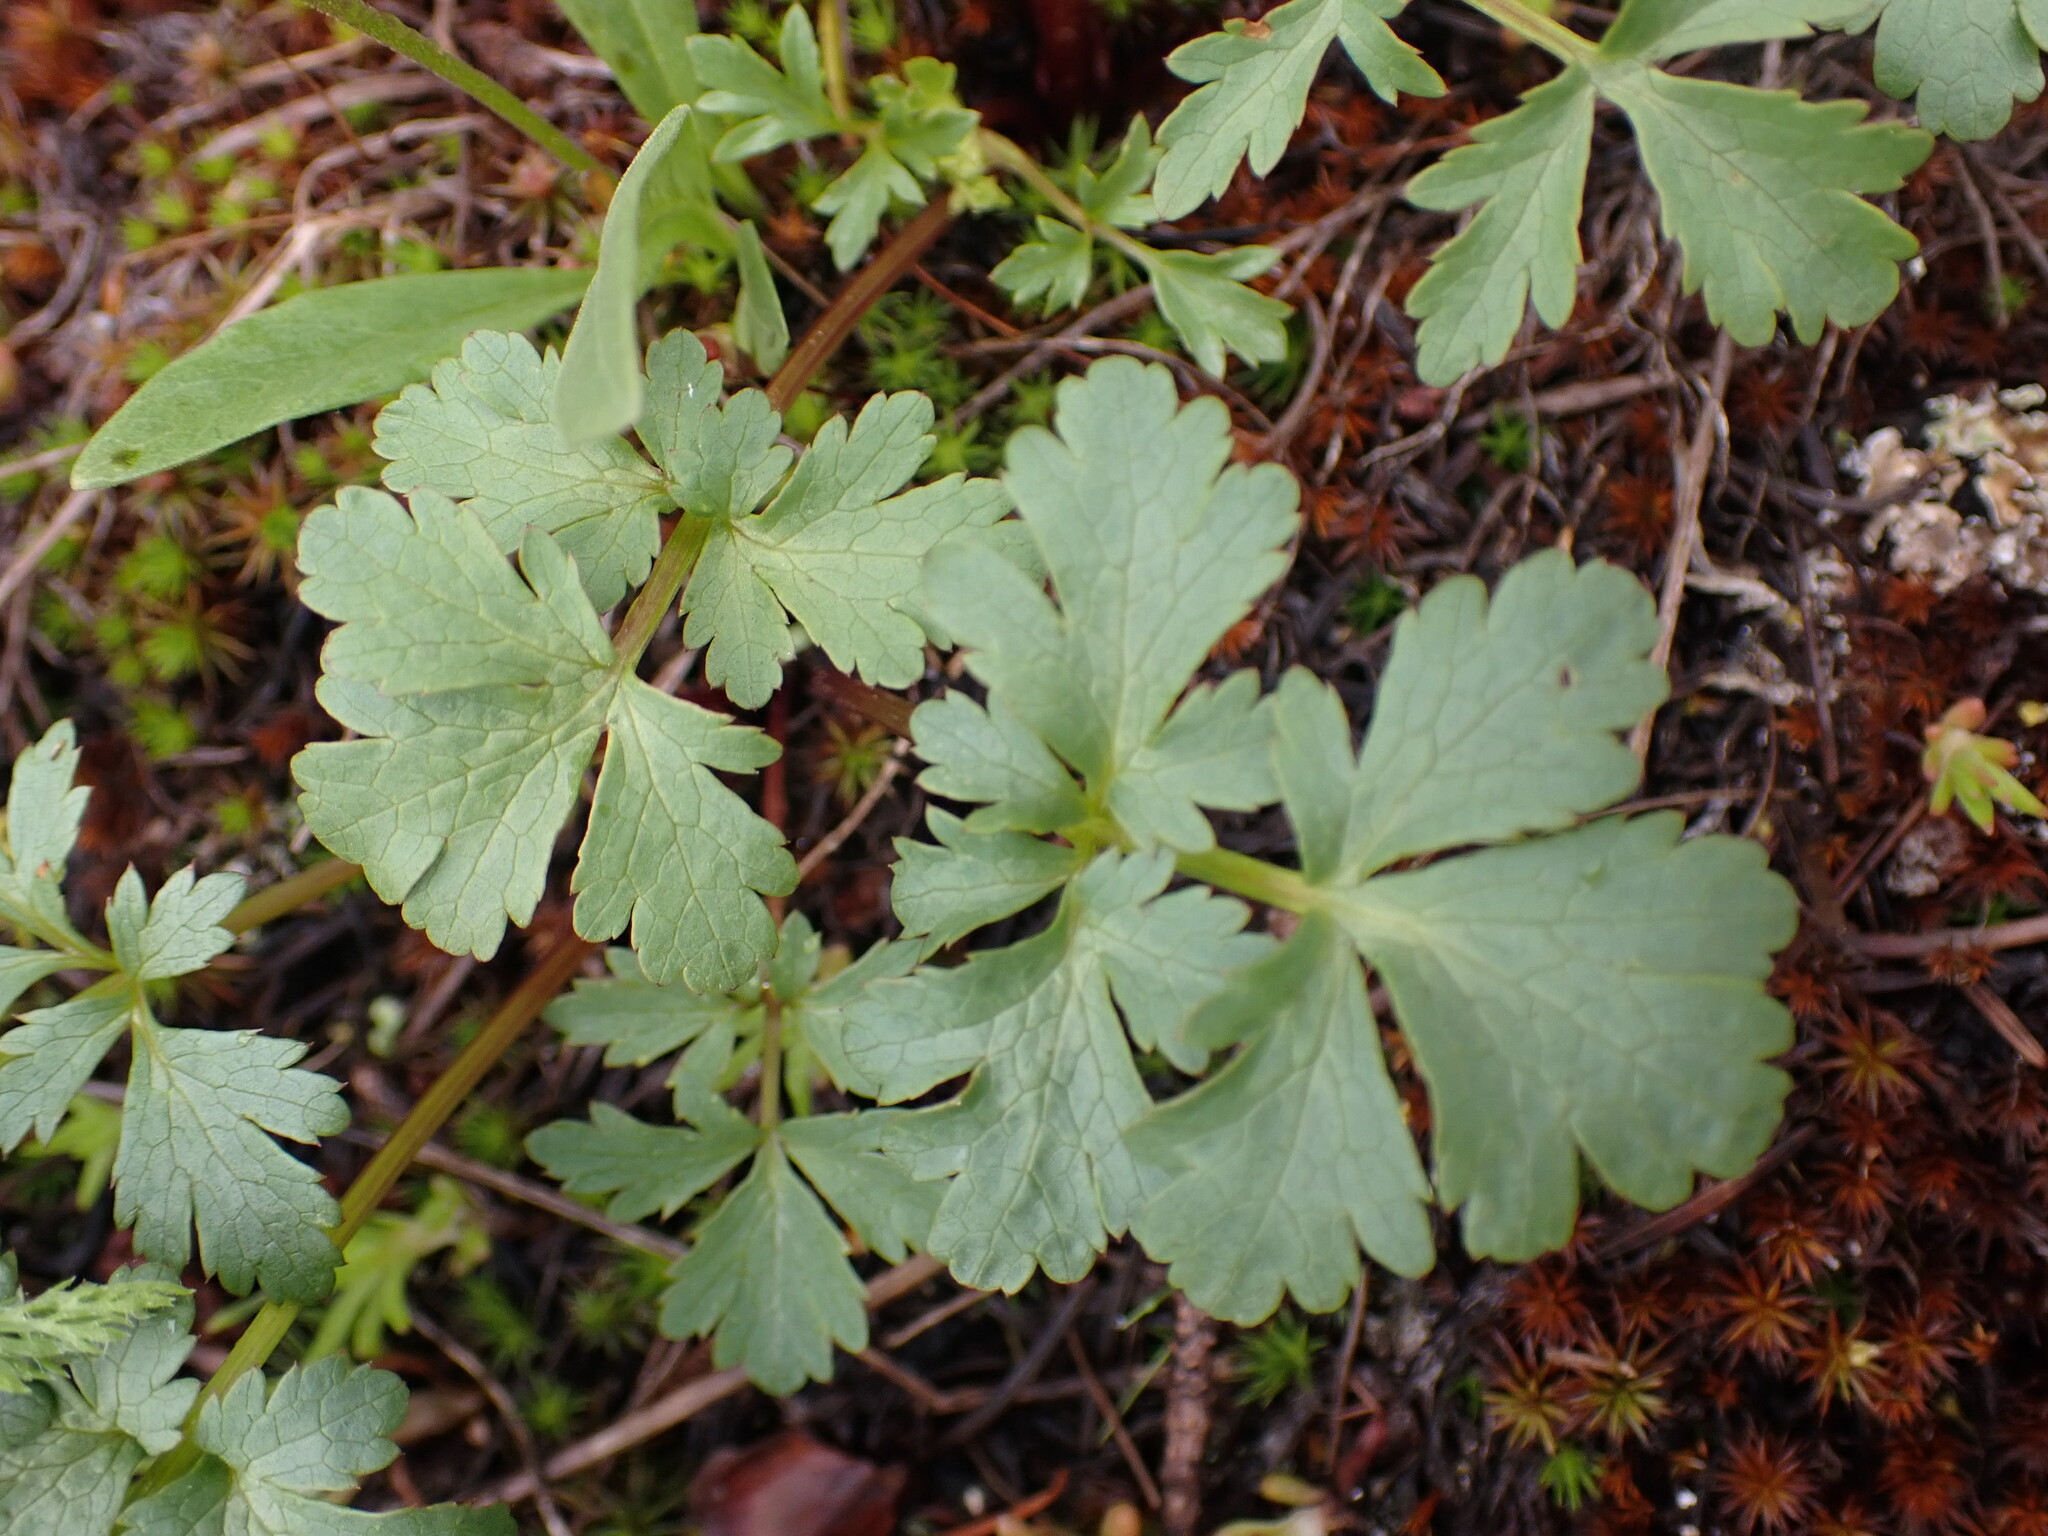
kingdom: Plantae
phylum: Tracheophyta
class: Magnoliopsida
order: Apiales
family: Apiaceae
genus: Sanicula
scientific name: Sanicula graveolens
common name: Sierra sanicle
